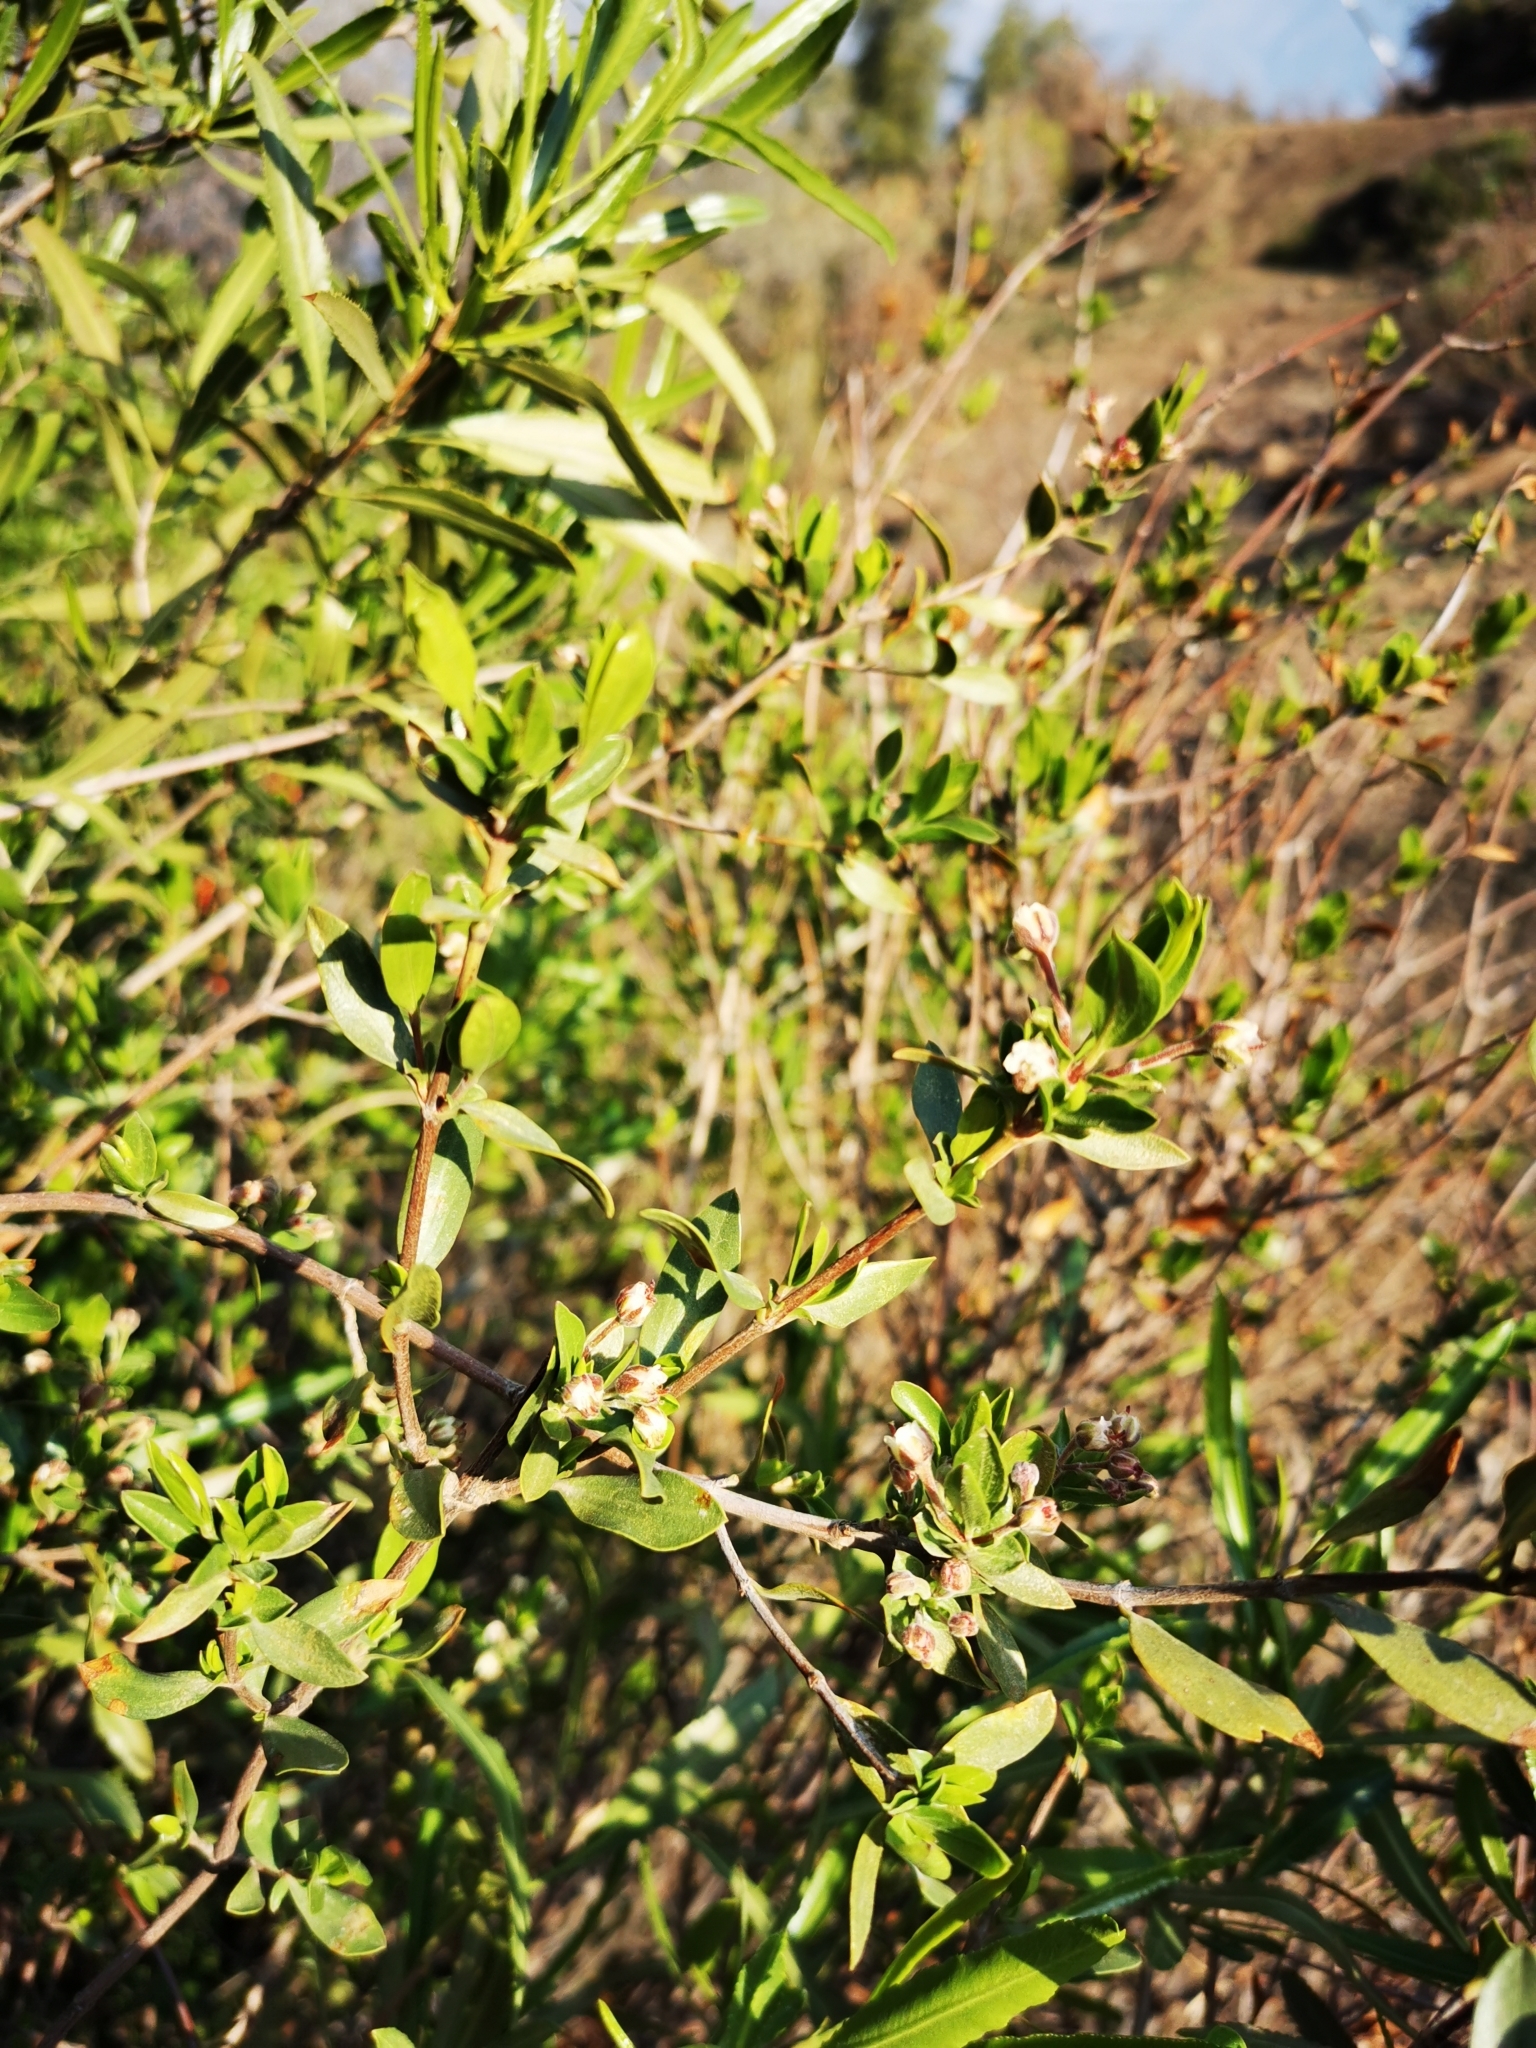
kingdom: Plantae
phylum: Tracheophyta
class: Magnoliopsida
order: Sapindales
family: Sapindaceae
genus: Guindilia
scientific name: Guindilia trinervis
